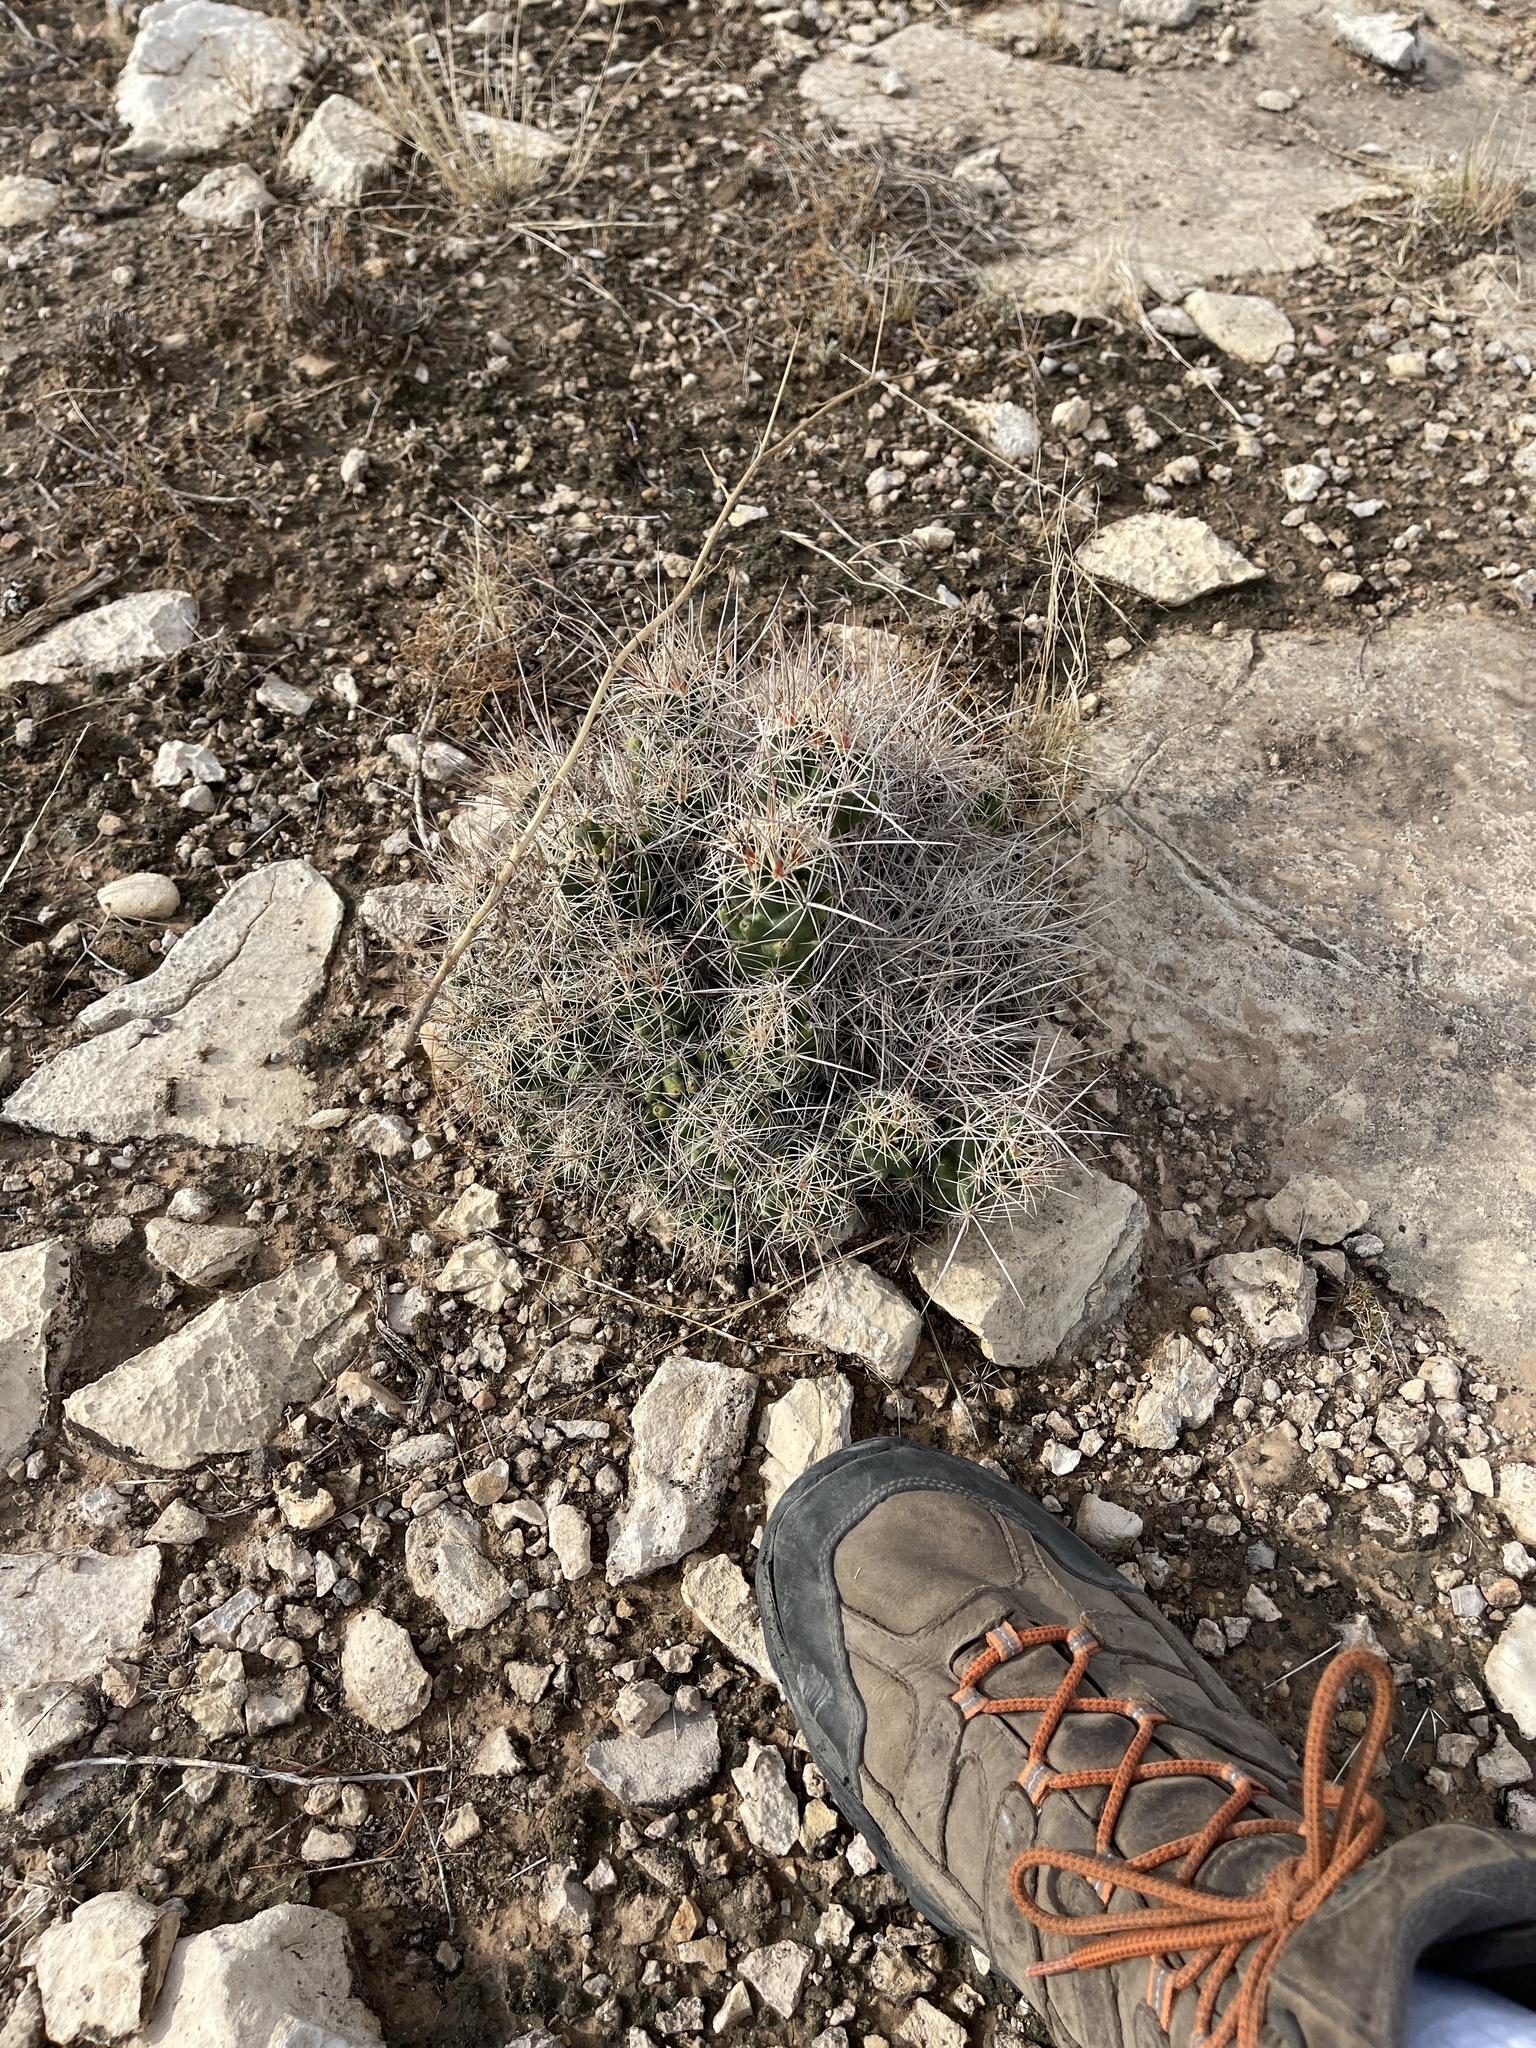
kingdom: Plantae
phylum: Tracheophyta
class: Magnoliopsida
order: Caryophyllales
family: Cactaceae
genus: Coryphantha
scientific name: Coryphantha macromeris
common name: Nipple beehive cactus
